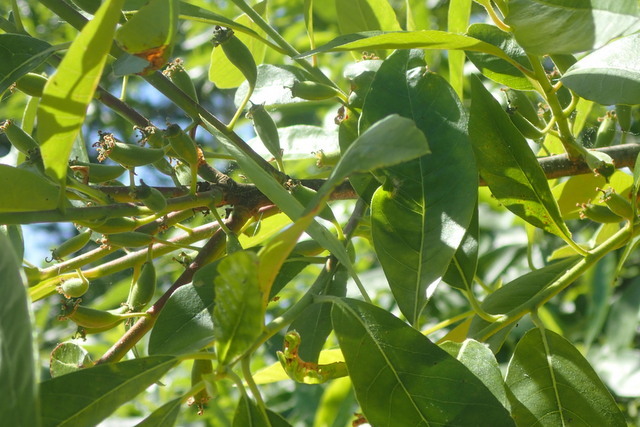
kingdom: Plantae
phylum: Tracheophyta
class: Magnoliopsida
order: Cornales
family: Nyssaceae
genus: Nyssa
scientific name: Nyssa ogeche
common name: Ogeechee tupelo
